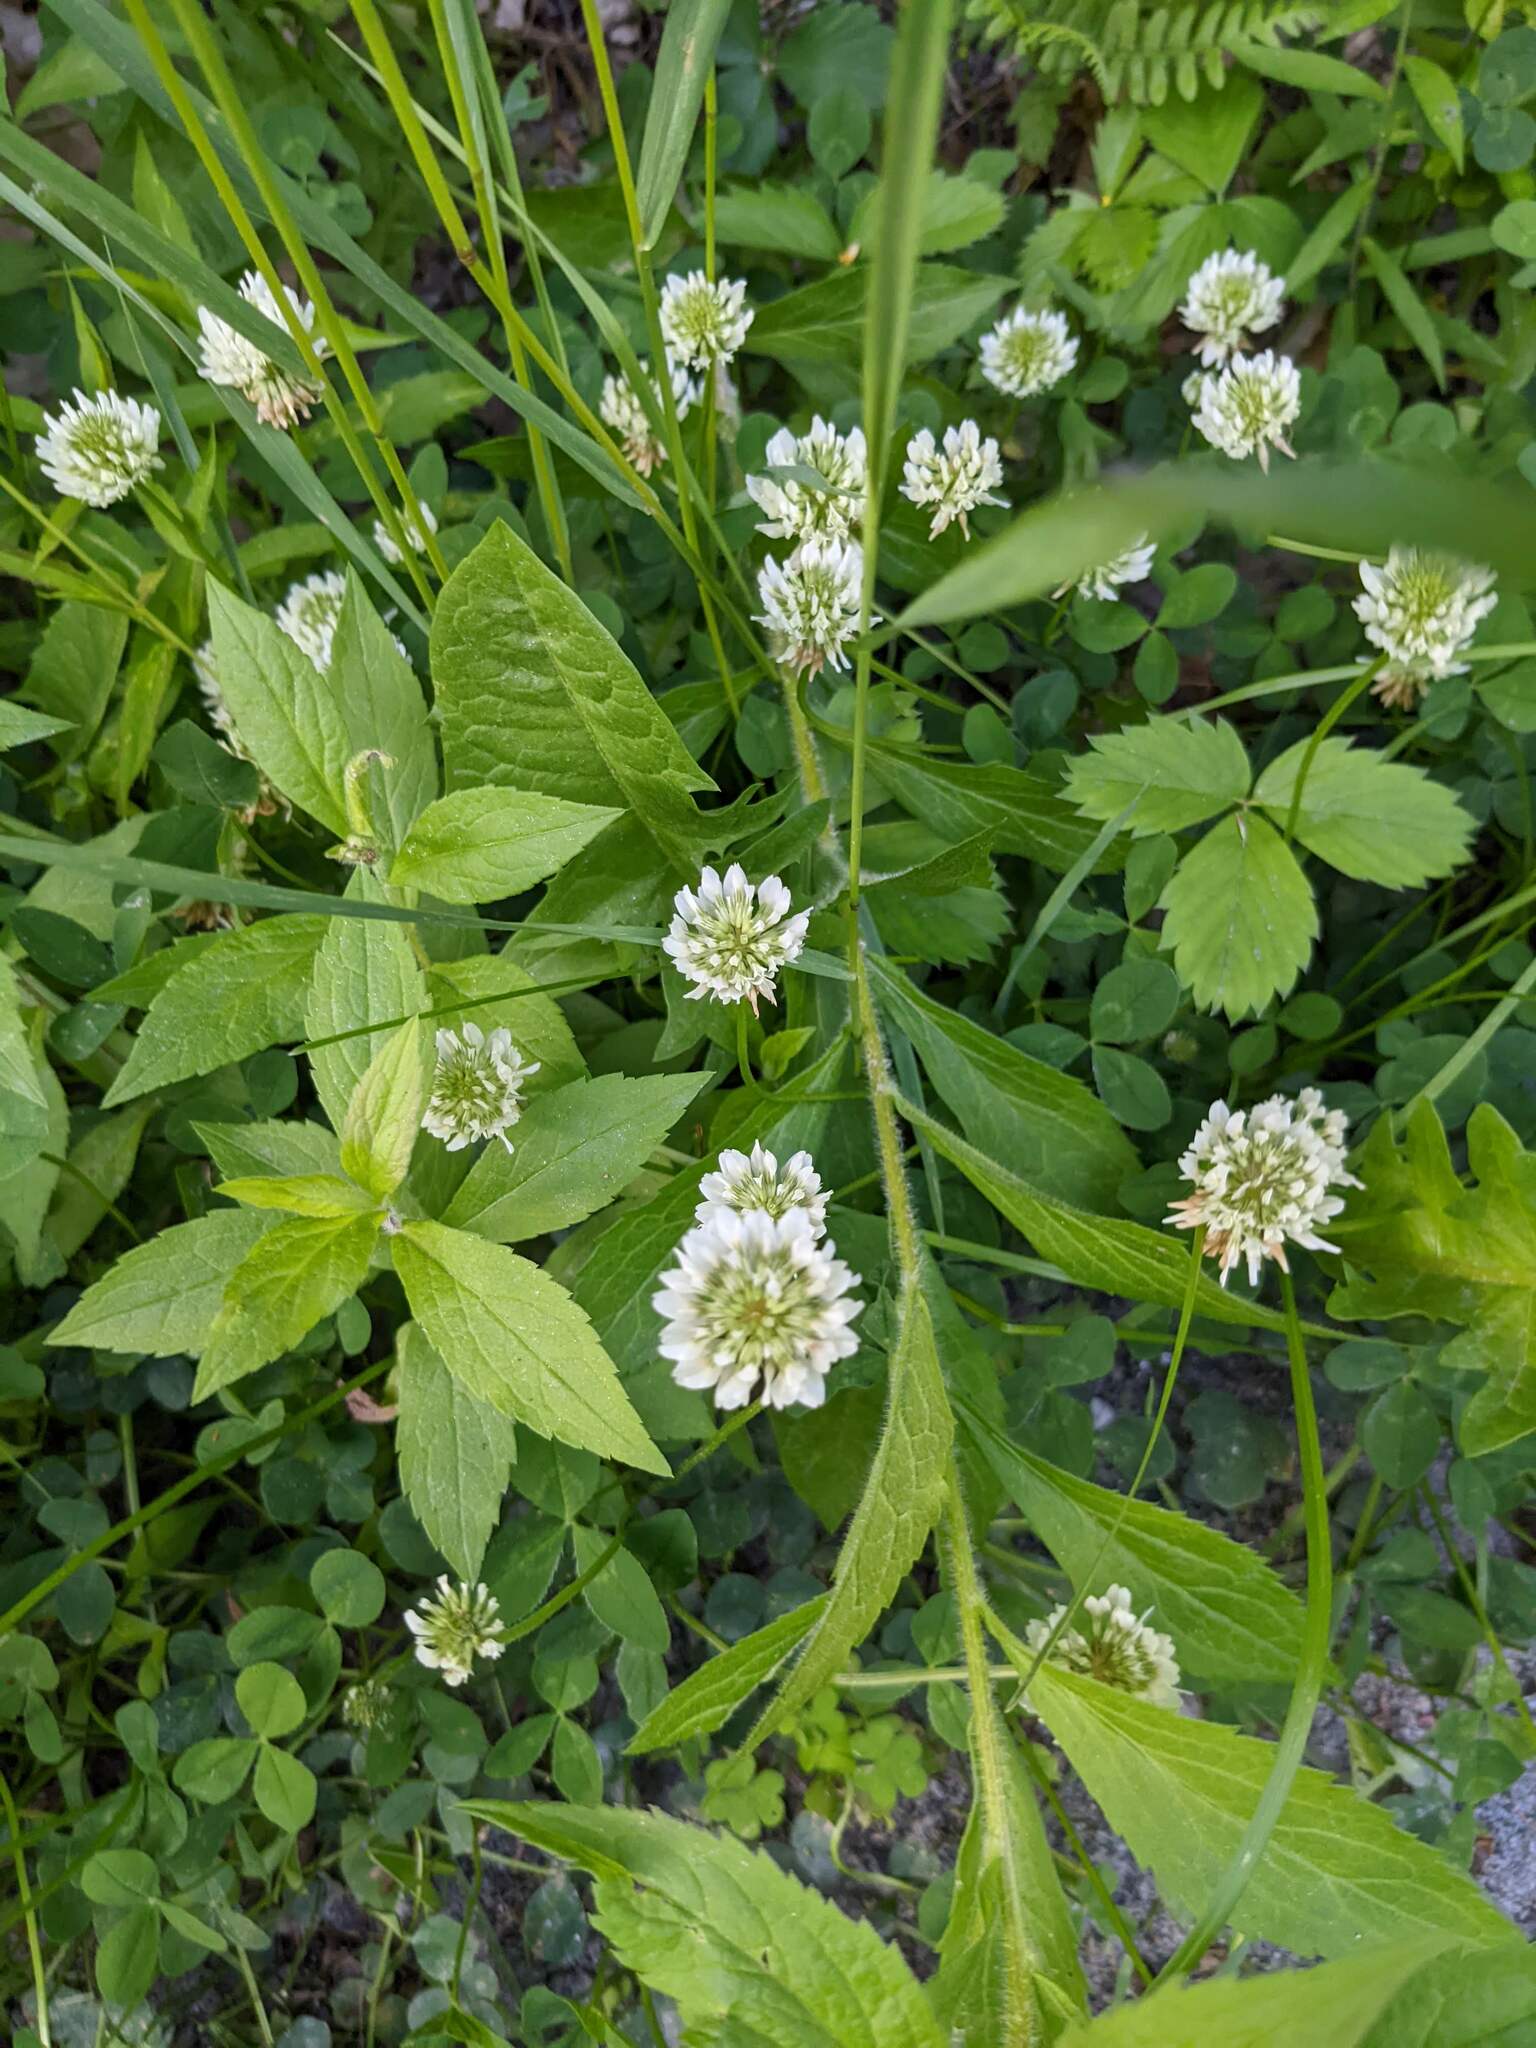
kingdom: Plantae
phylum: Tracheophyta
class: Magnoliopsida
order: Fabales
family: Fabaceae
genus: Trifolium
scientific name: Trifolium repens
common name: White clover
